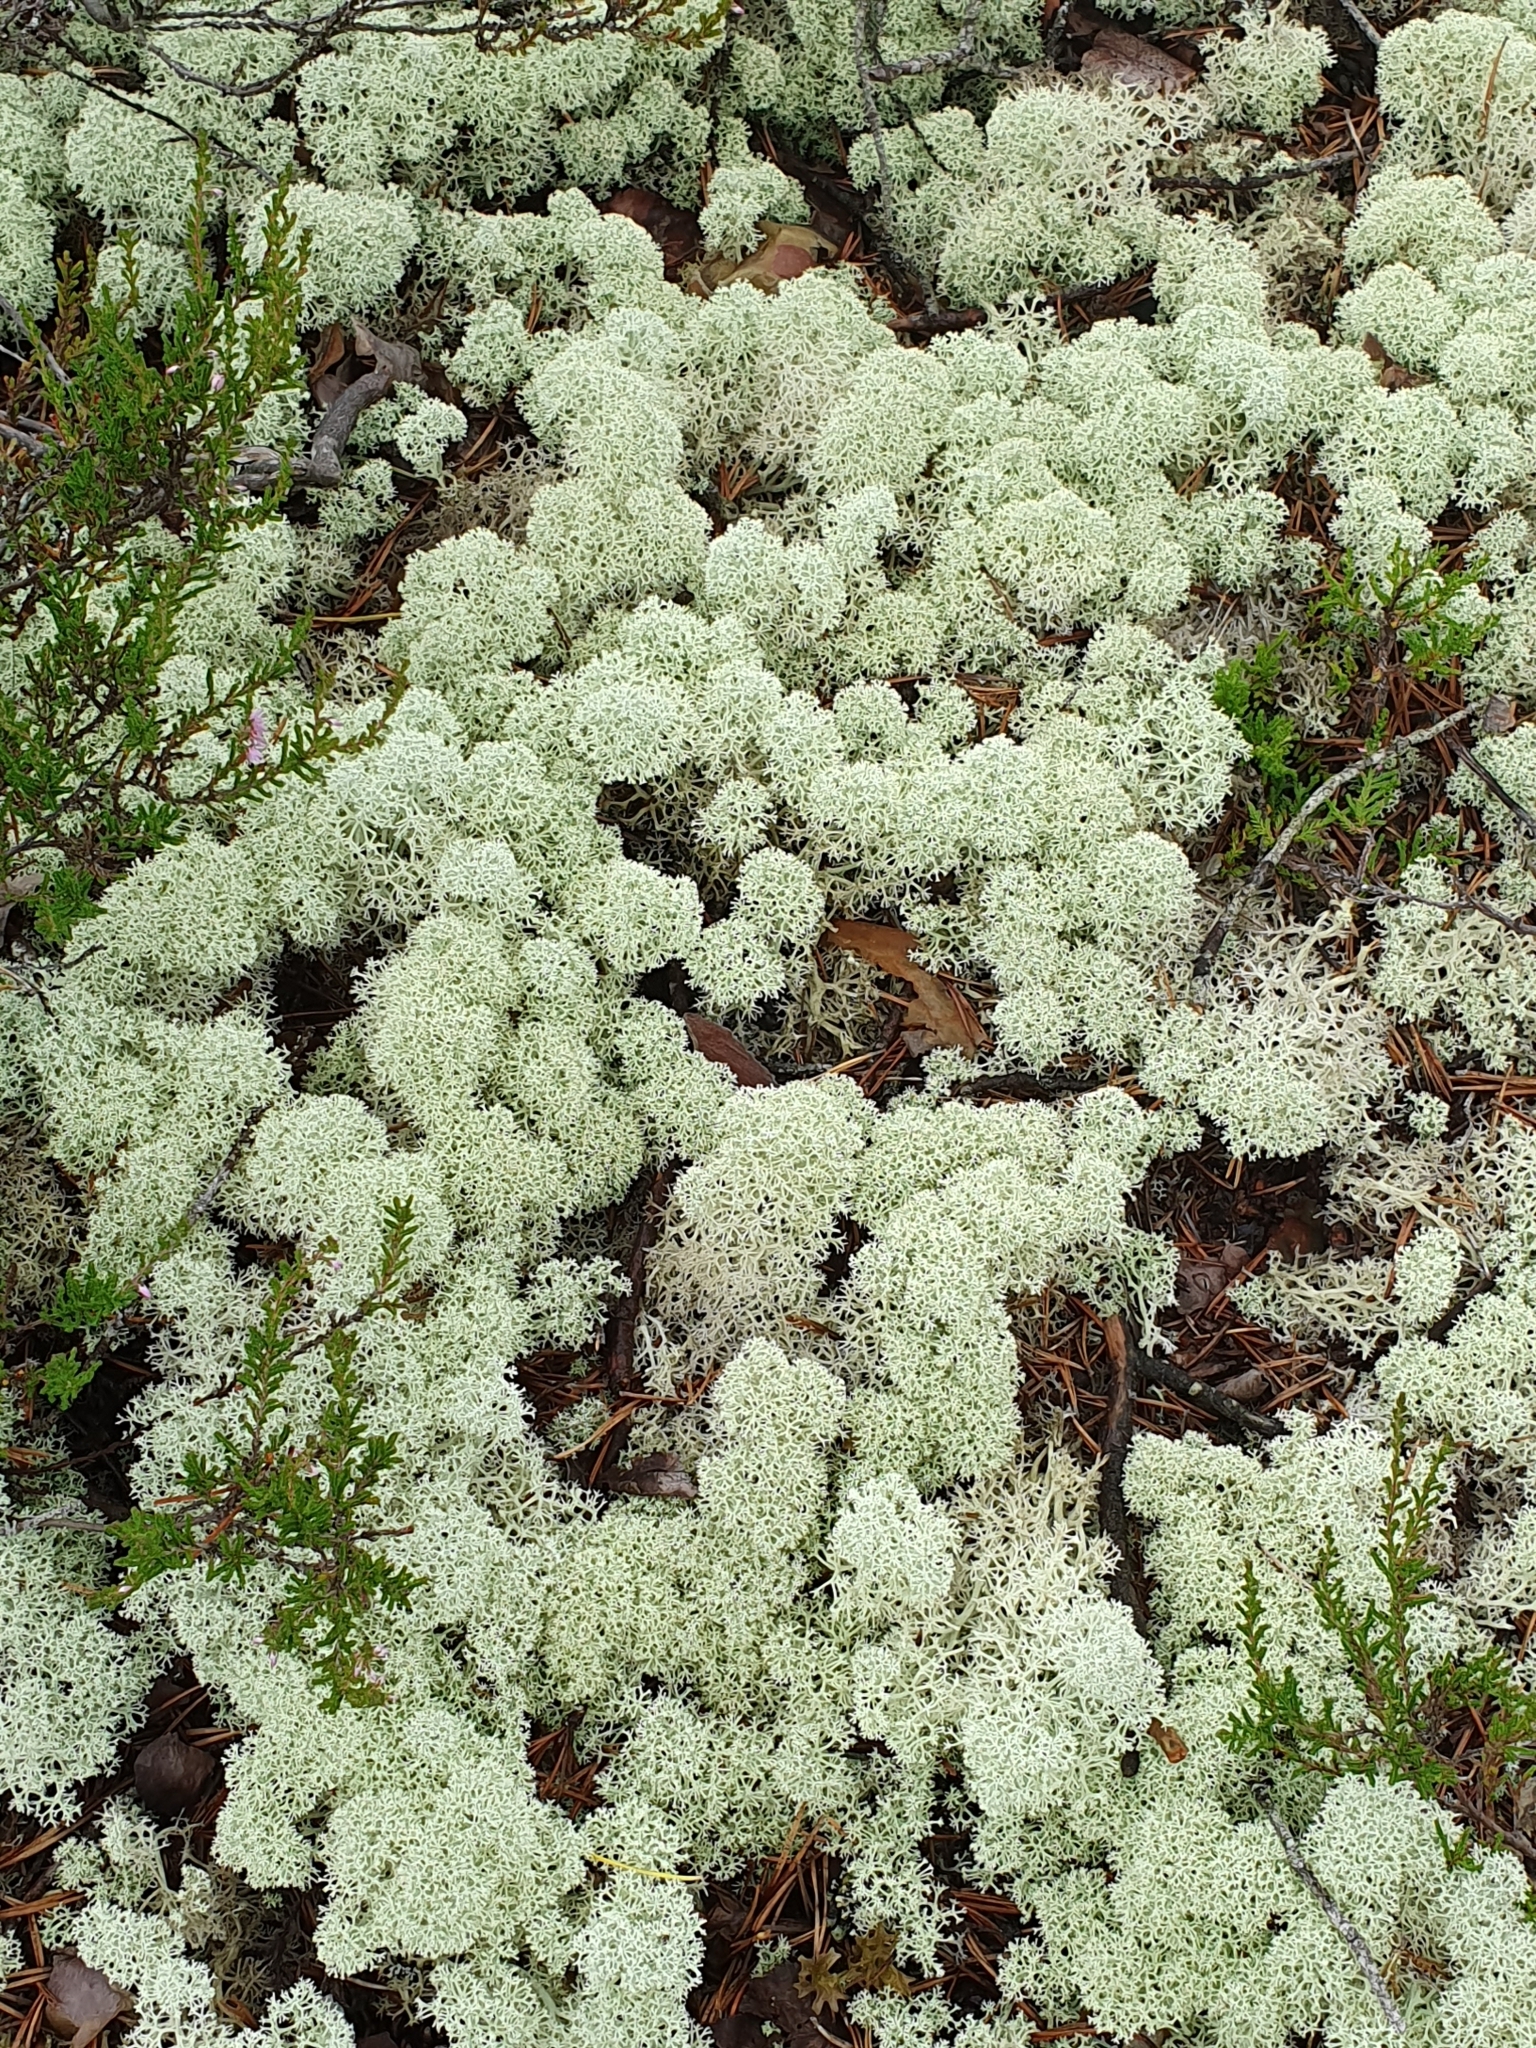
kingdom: Fungi
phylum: Ascomycota
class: Lecanoromycetes
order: Lecanorales
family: Cladoniaceae
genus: Cladonia
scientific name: Cladonia stellaris
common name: Star-tipped reindeer lichen
